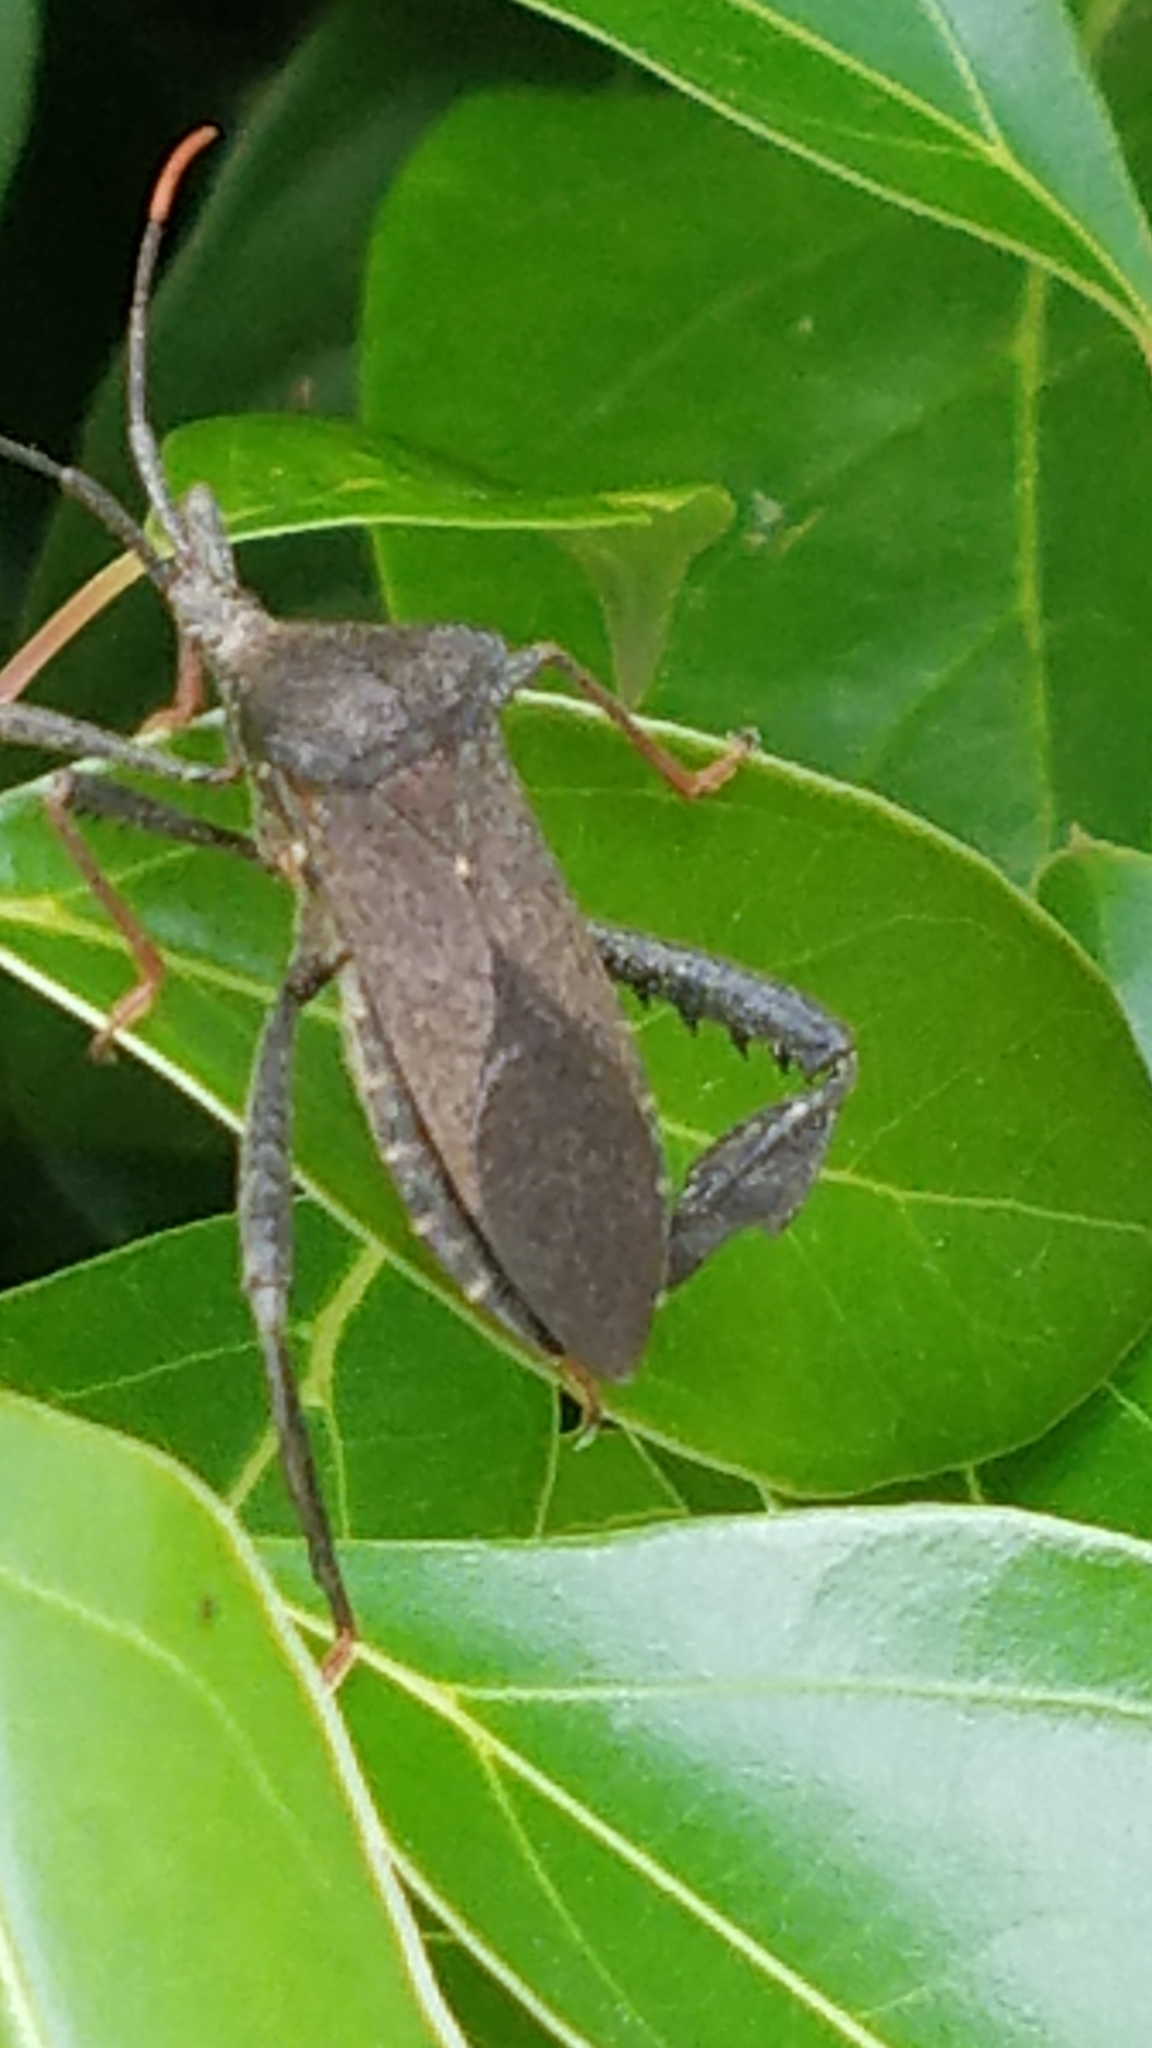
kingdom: Animalia
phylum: Arthropoda
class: Insecta
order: Hemiptera
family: Coreidae
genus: Acanthocephala
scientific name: Acanthocephala terminalis
